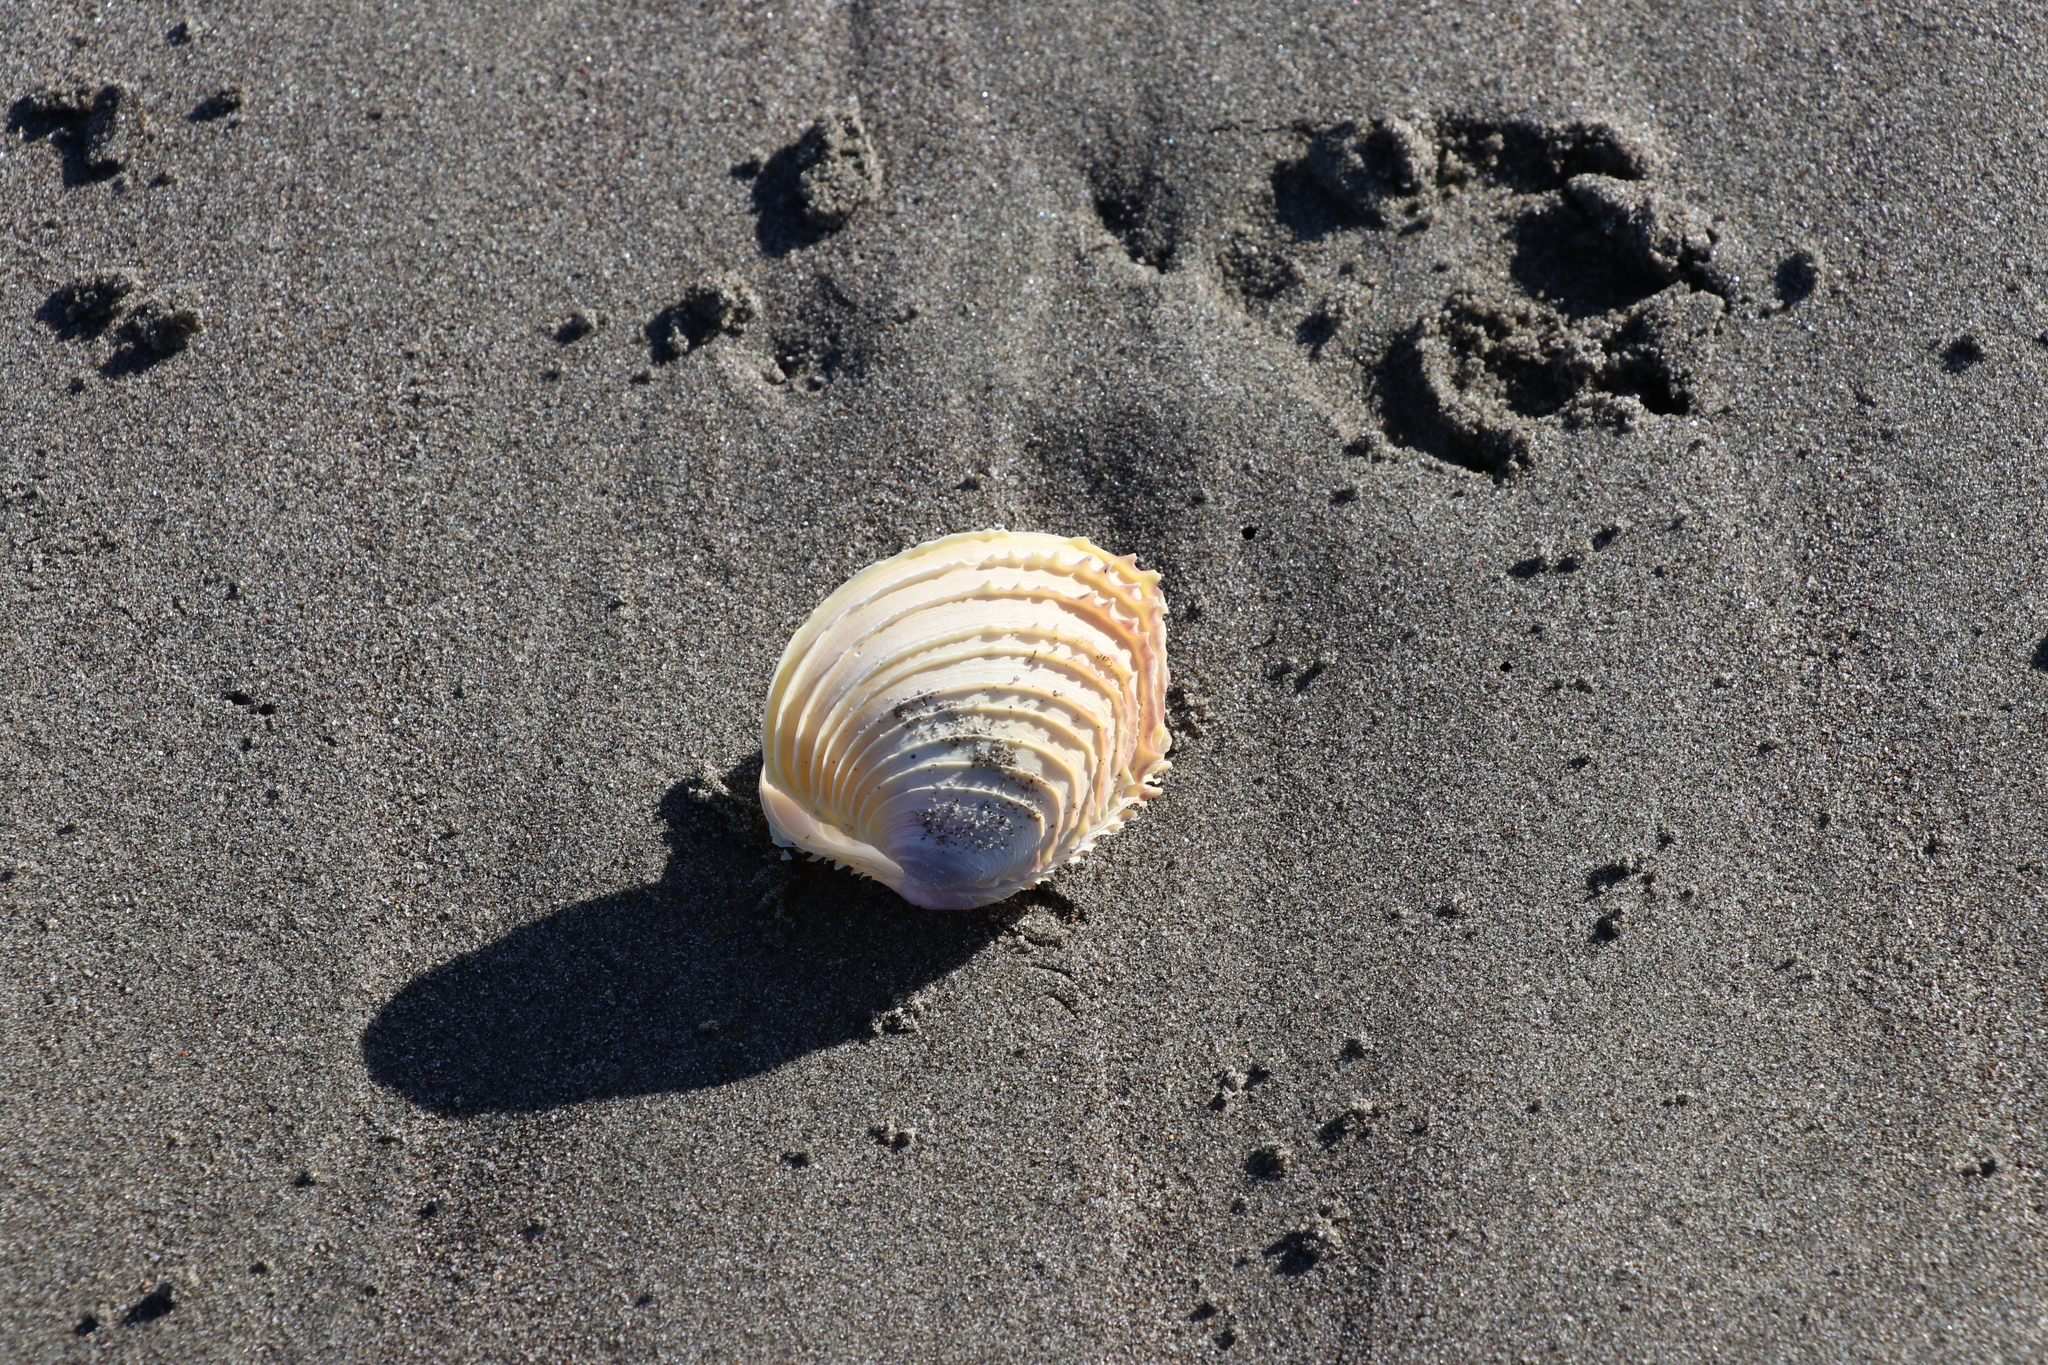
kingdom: Animalia
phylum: Mollusca
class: Bivalvia
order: Venerida
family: Veneridae
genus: Bassina
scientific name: Bassina yatei
